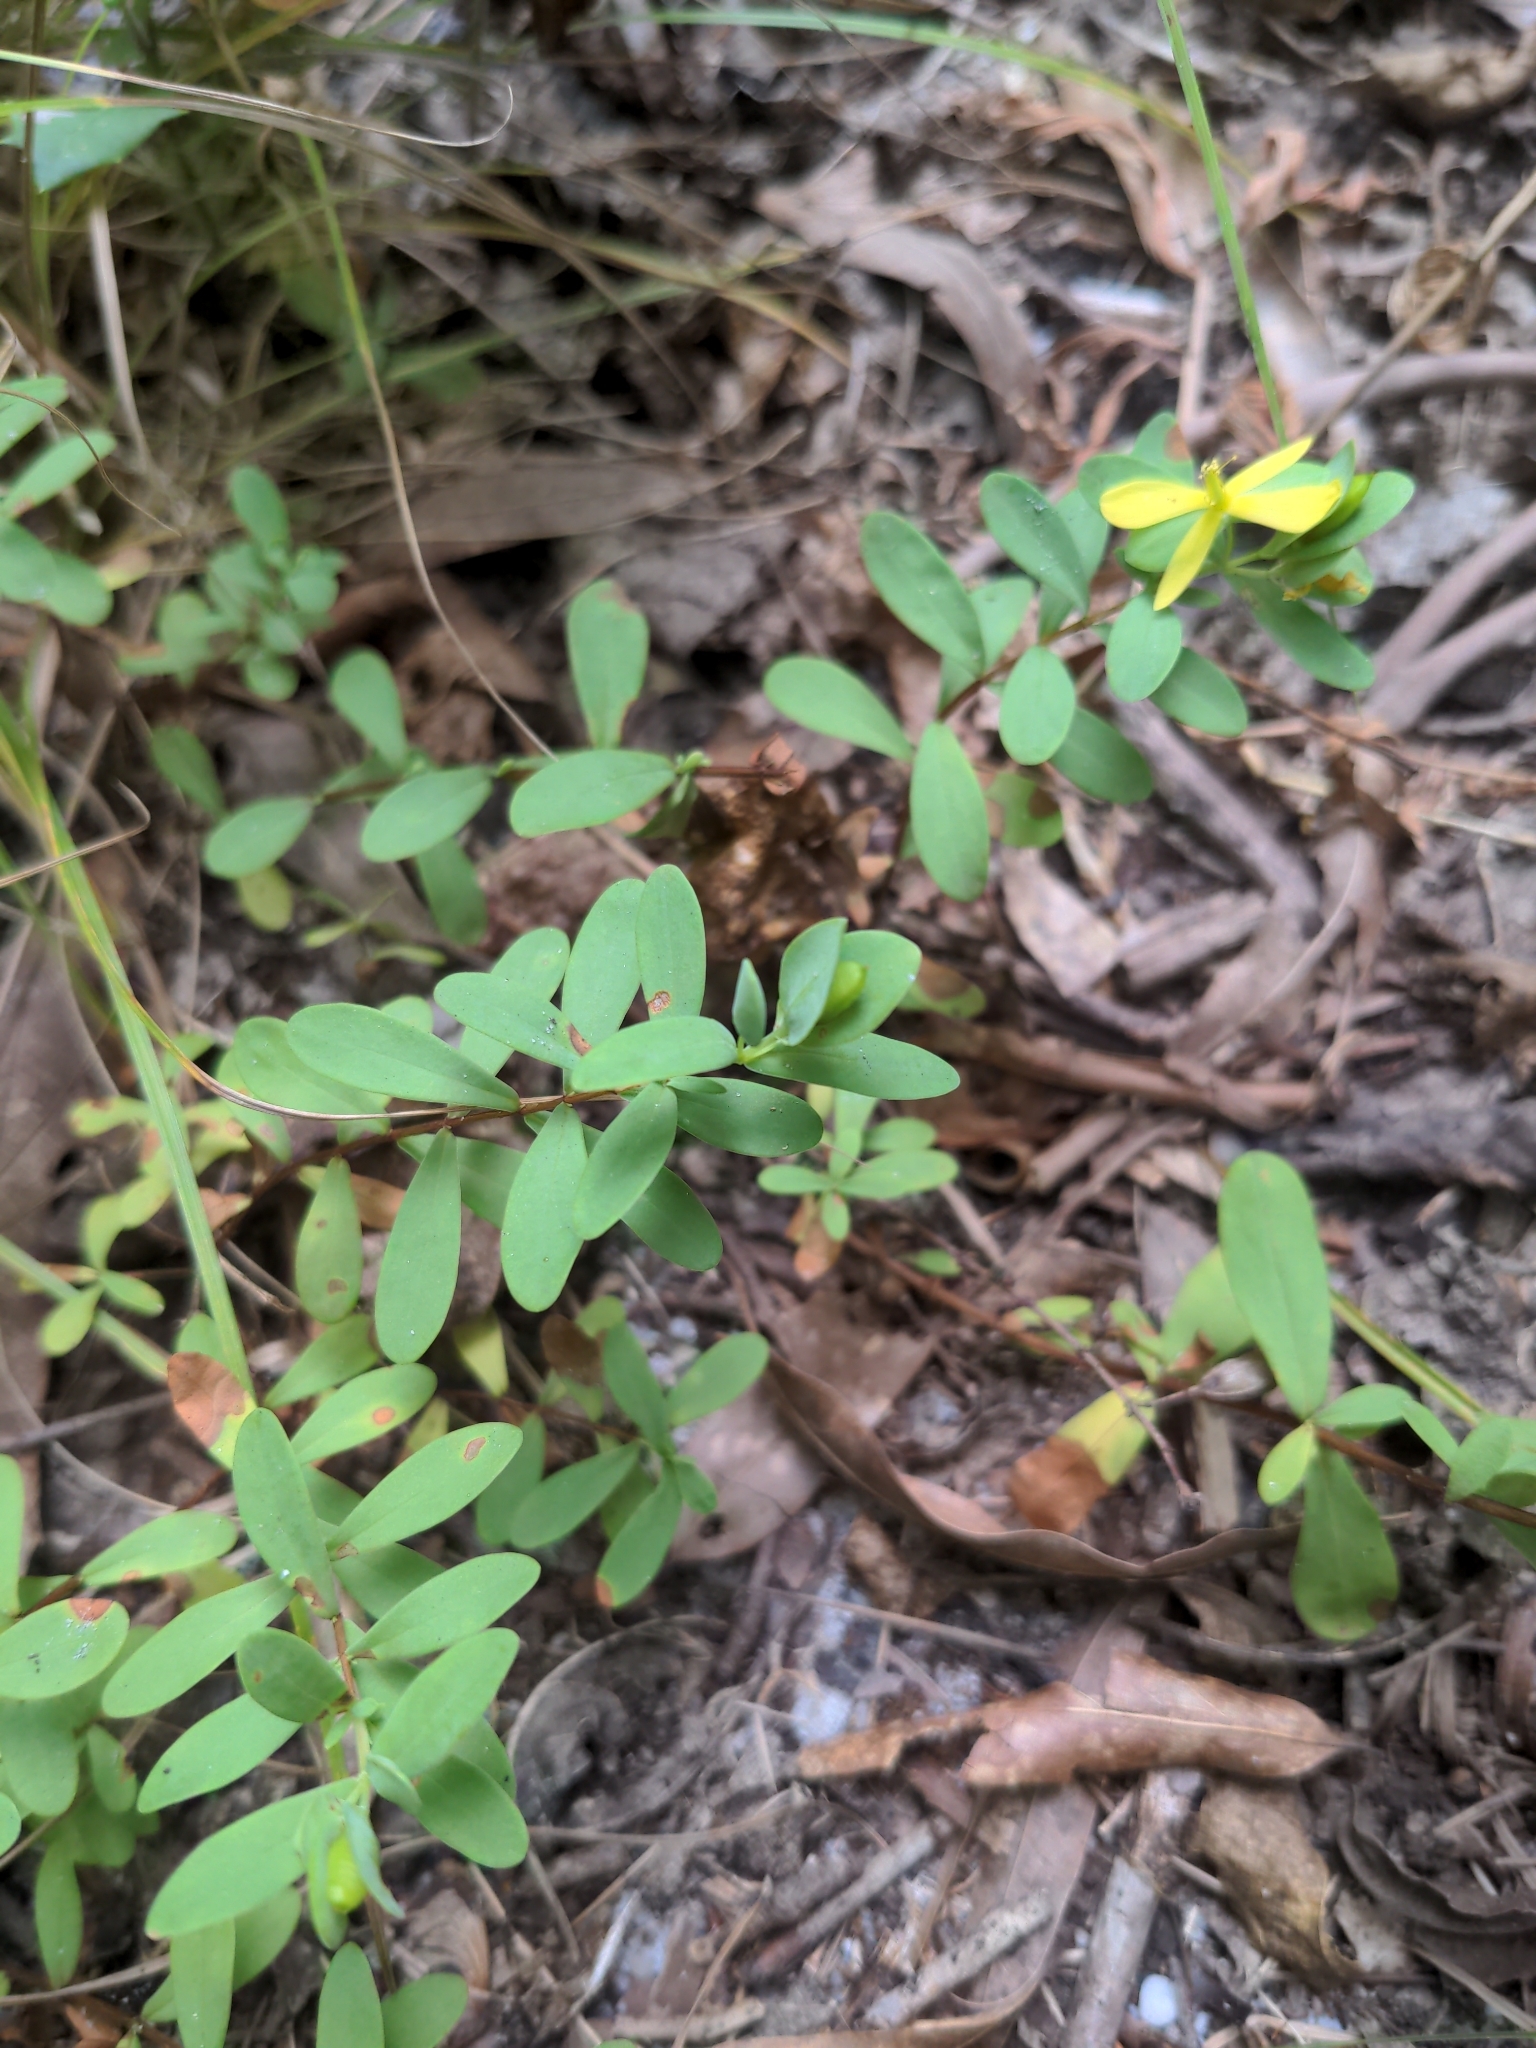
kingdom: Plantae
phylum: Tracheophyta
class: Magnoliopsida
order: Malpighiales
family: Hypericaceae
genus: Hypericum
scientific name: Hypericum hypericoides
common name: St. andrew's cross
